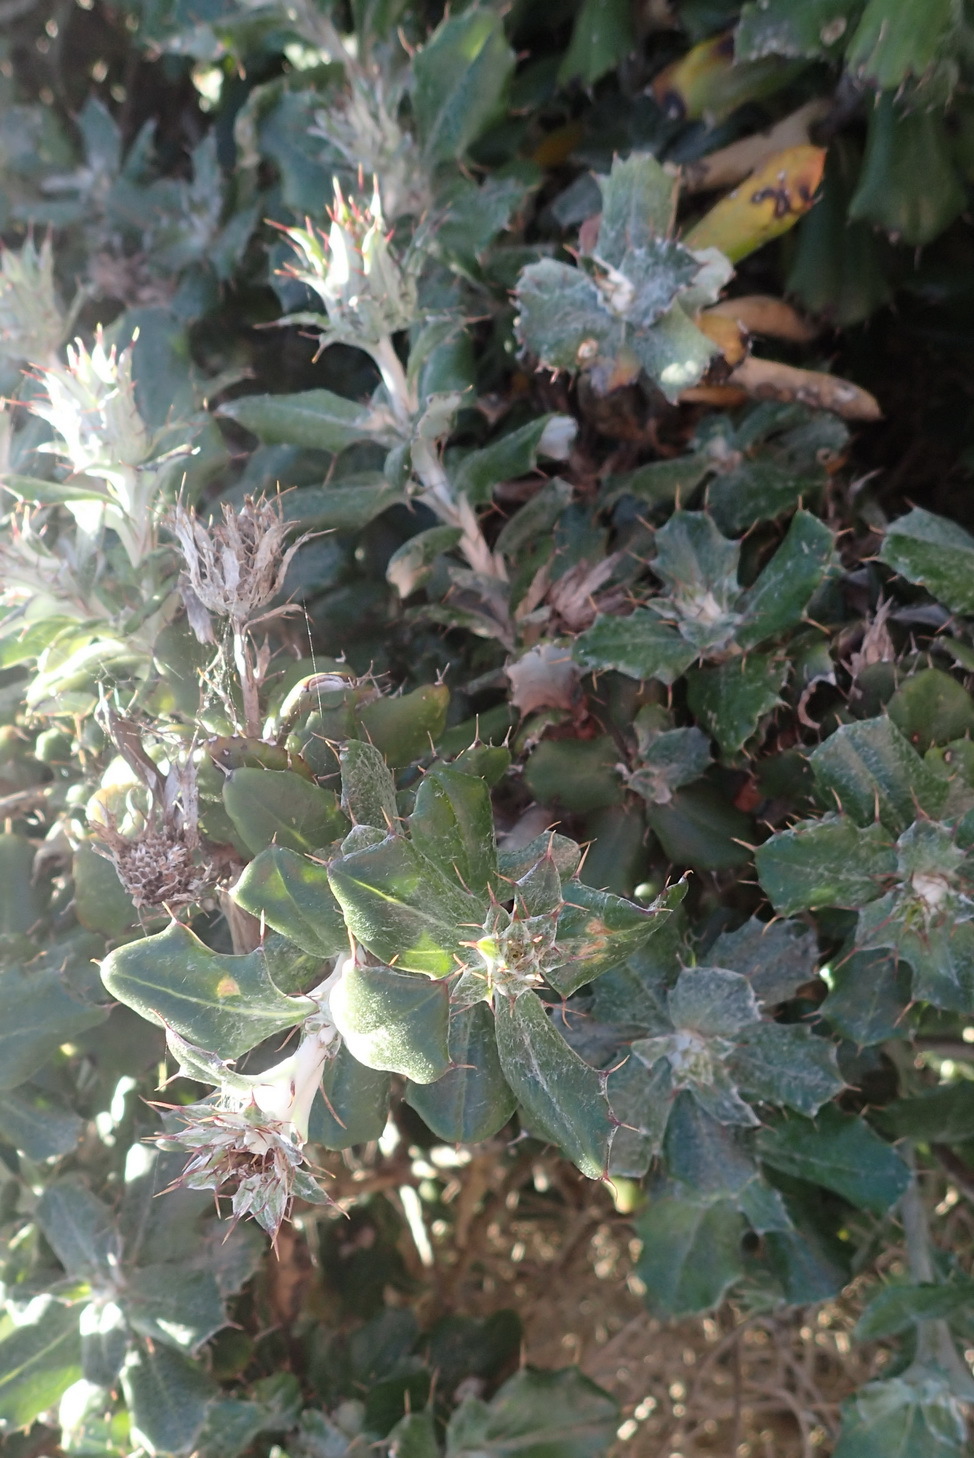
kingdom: Plantae
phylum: Tracheophyta
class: Magnoliopsida
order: Asterales
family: Asteraceae
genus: Berkheya
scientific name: Berkheya coriacea
